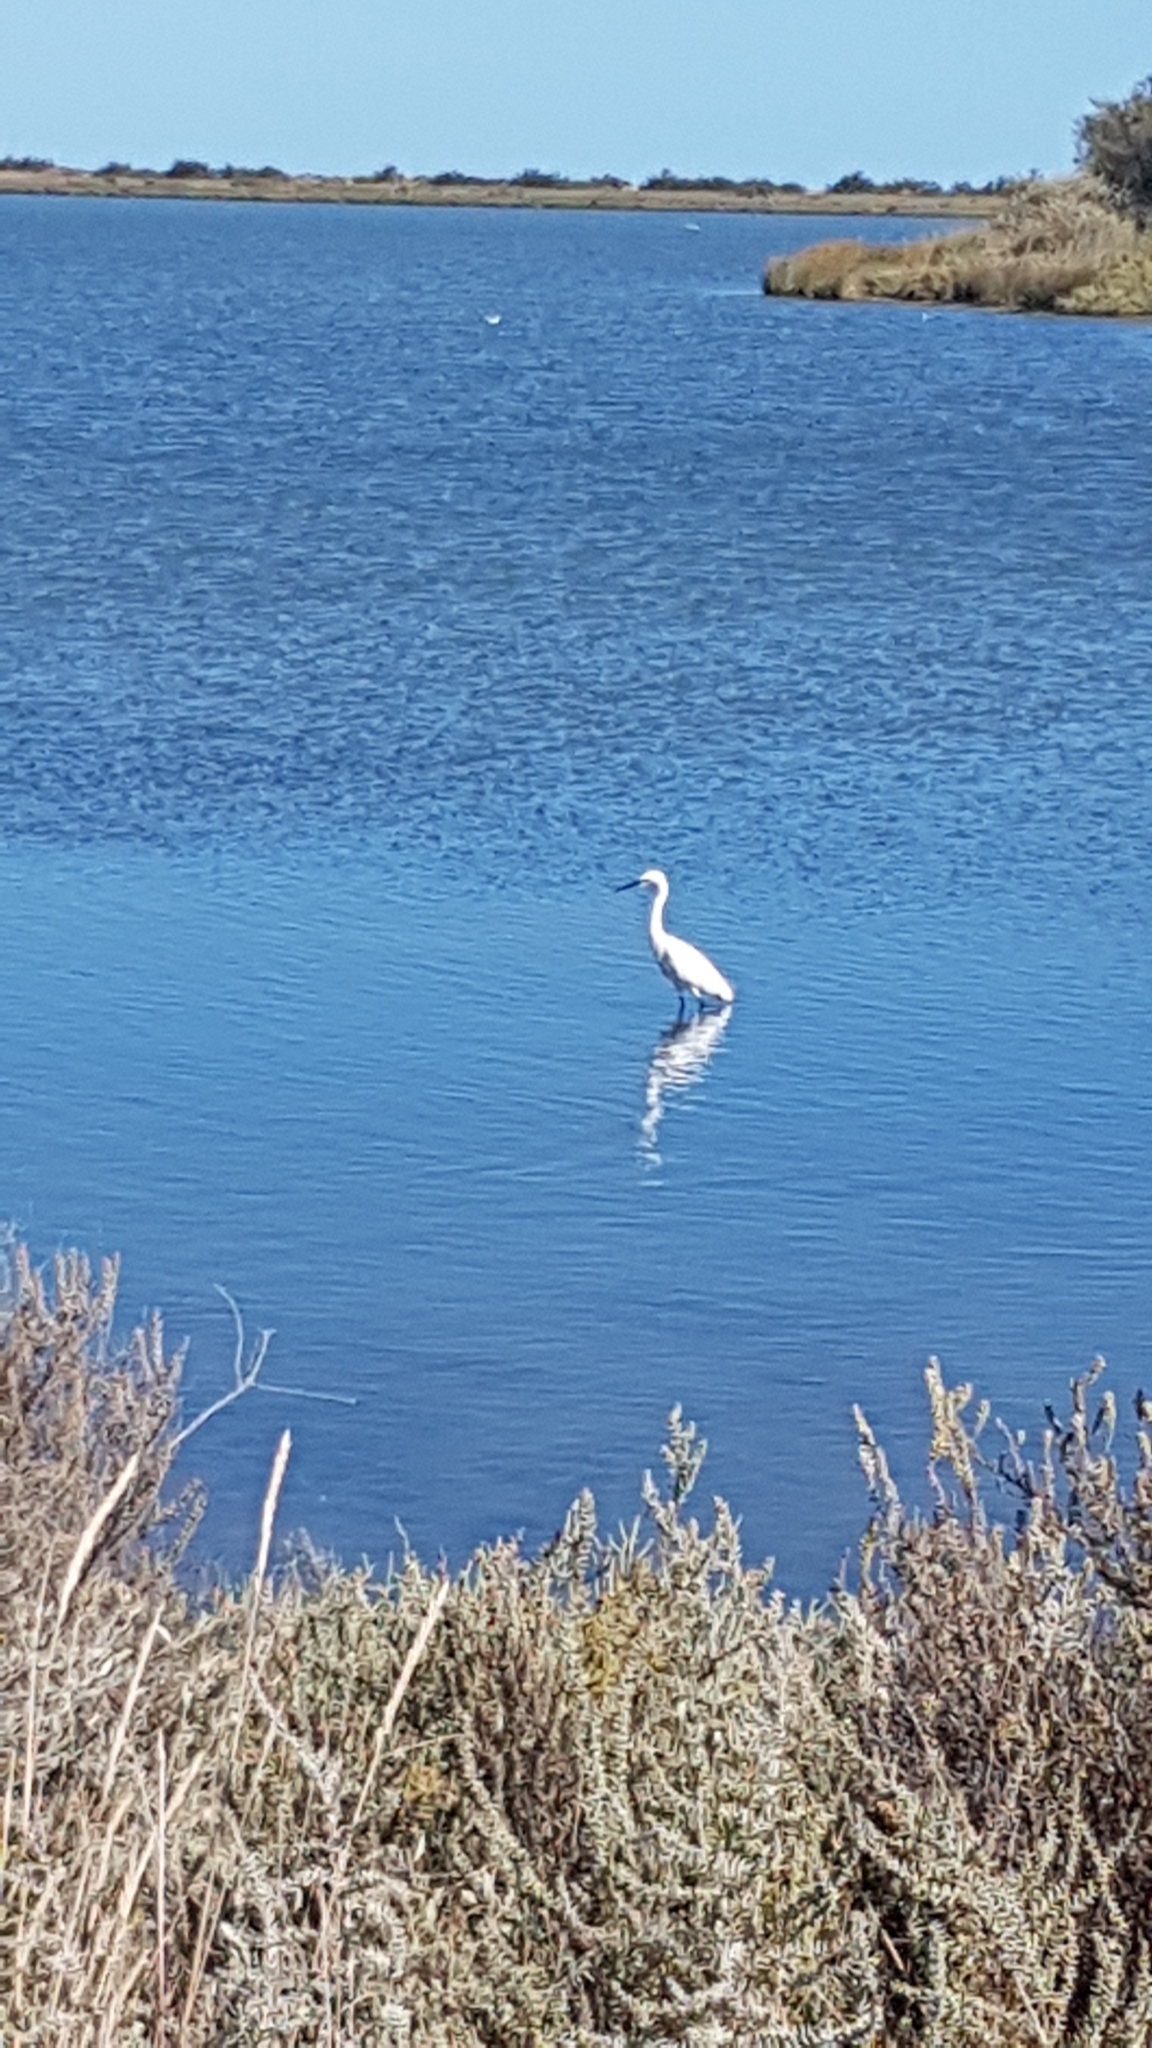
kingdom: Animalia
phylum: Chordata
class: Aves
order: Pelecaniformes
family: Ardeidae
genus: Egretta
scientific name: Egretta garzetta
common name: Little egret
